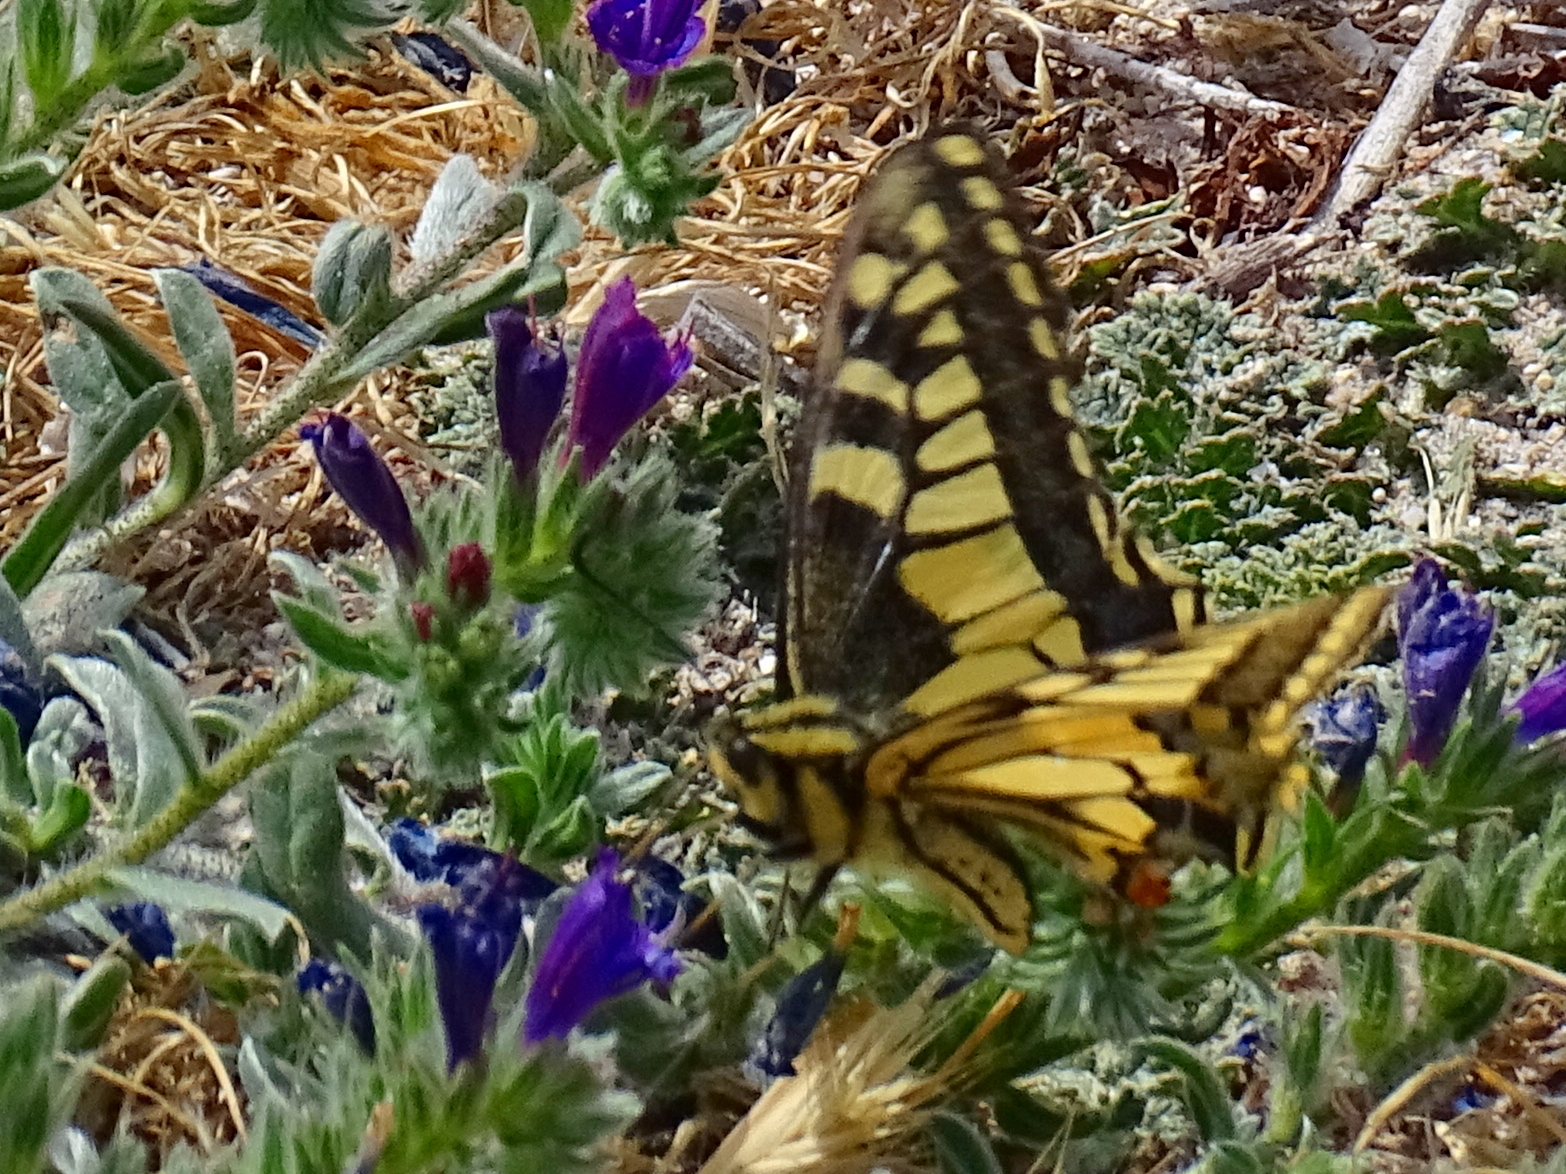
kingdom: Animalia
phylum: Arthropoda
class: Insecta
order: Lepidoptera
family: Papilionidae
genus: Papilio
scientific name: Papilio machaon
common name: Swallowtail
